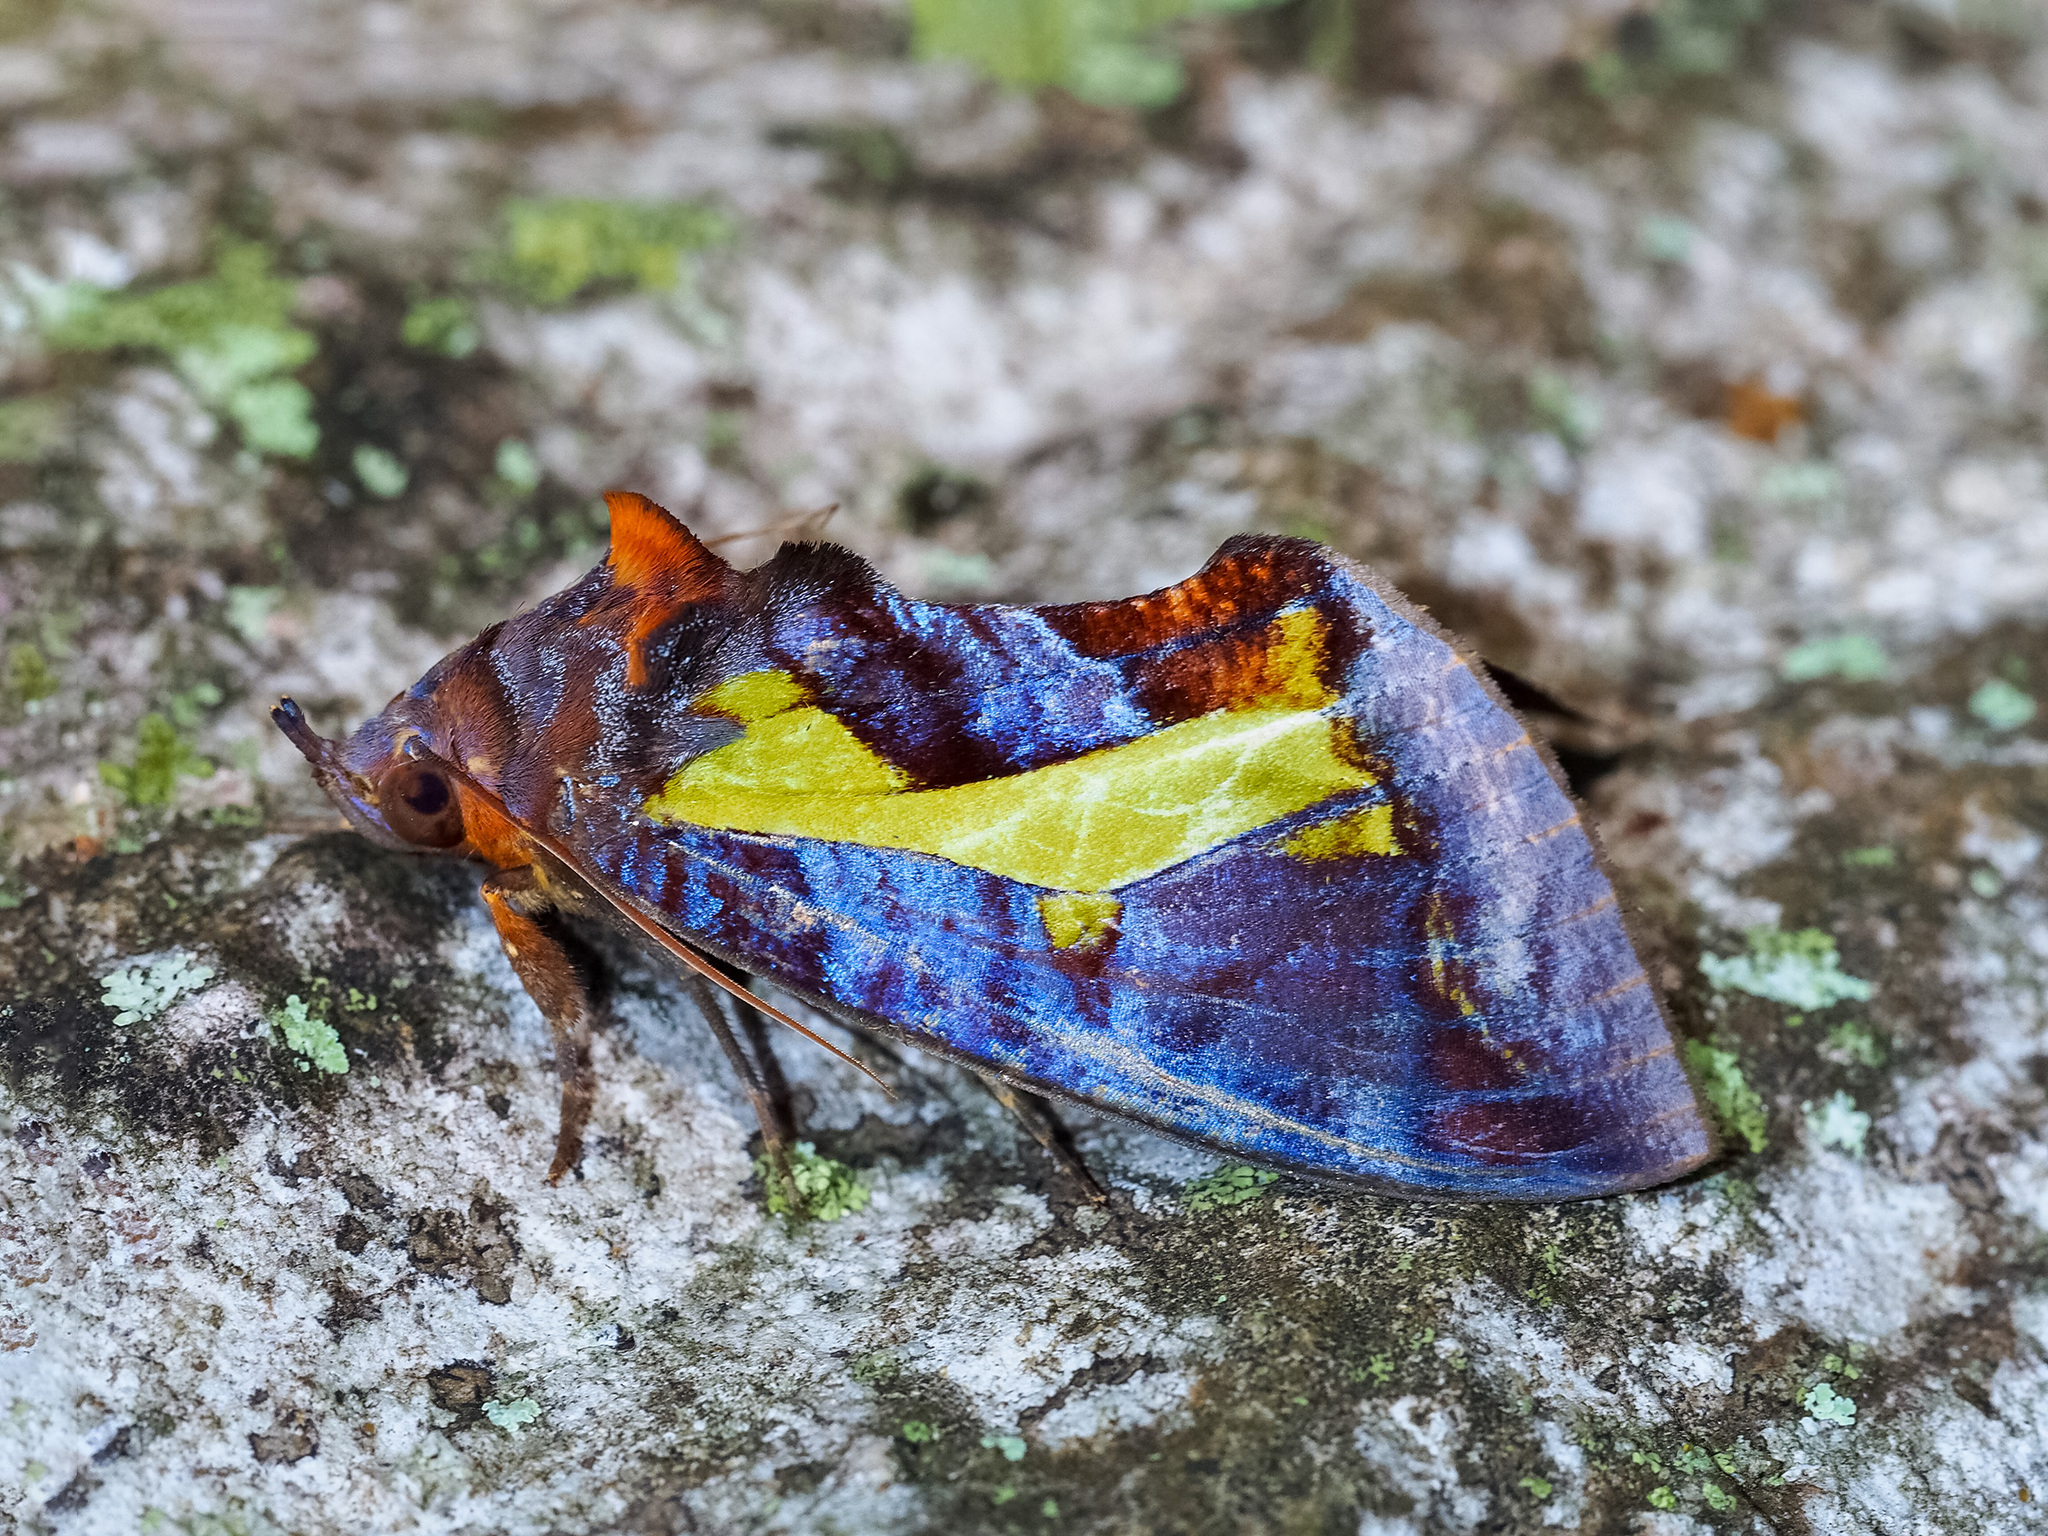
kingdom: Animalia
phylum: Arthropoda
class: Insecta
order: Lepidoptera
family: Erebidae
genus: Eudocima
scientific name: Eudocima homaena
